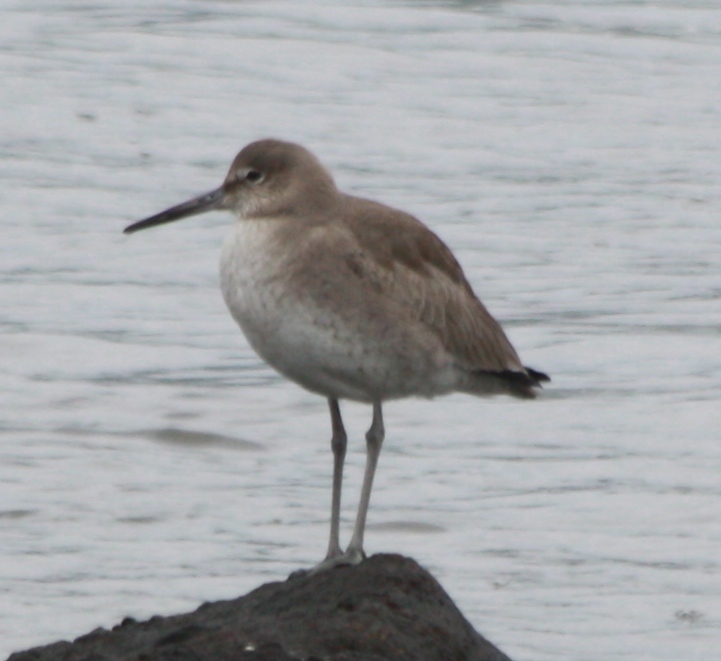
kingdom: Animalia
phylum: Chordata
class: Aves
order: Charadriiformes
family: Scolopacidae
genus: Tringa
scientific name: Tringa semipalmata
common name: Willet
